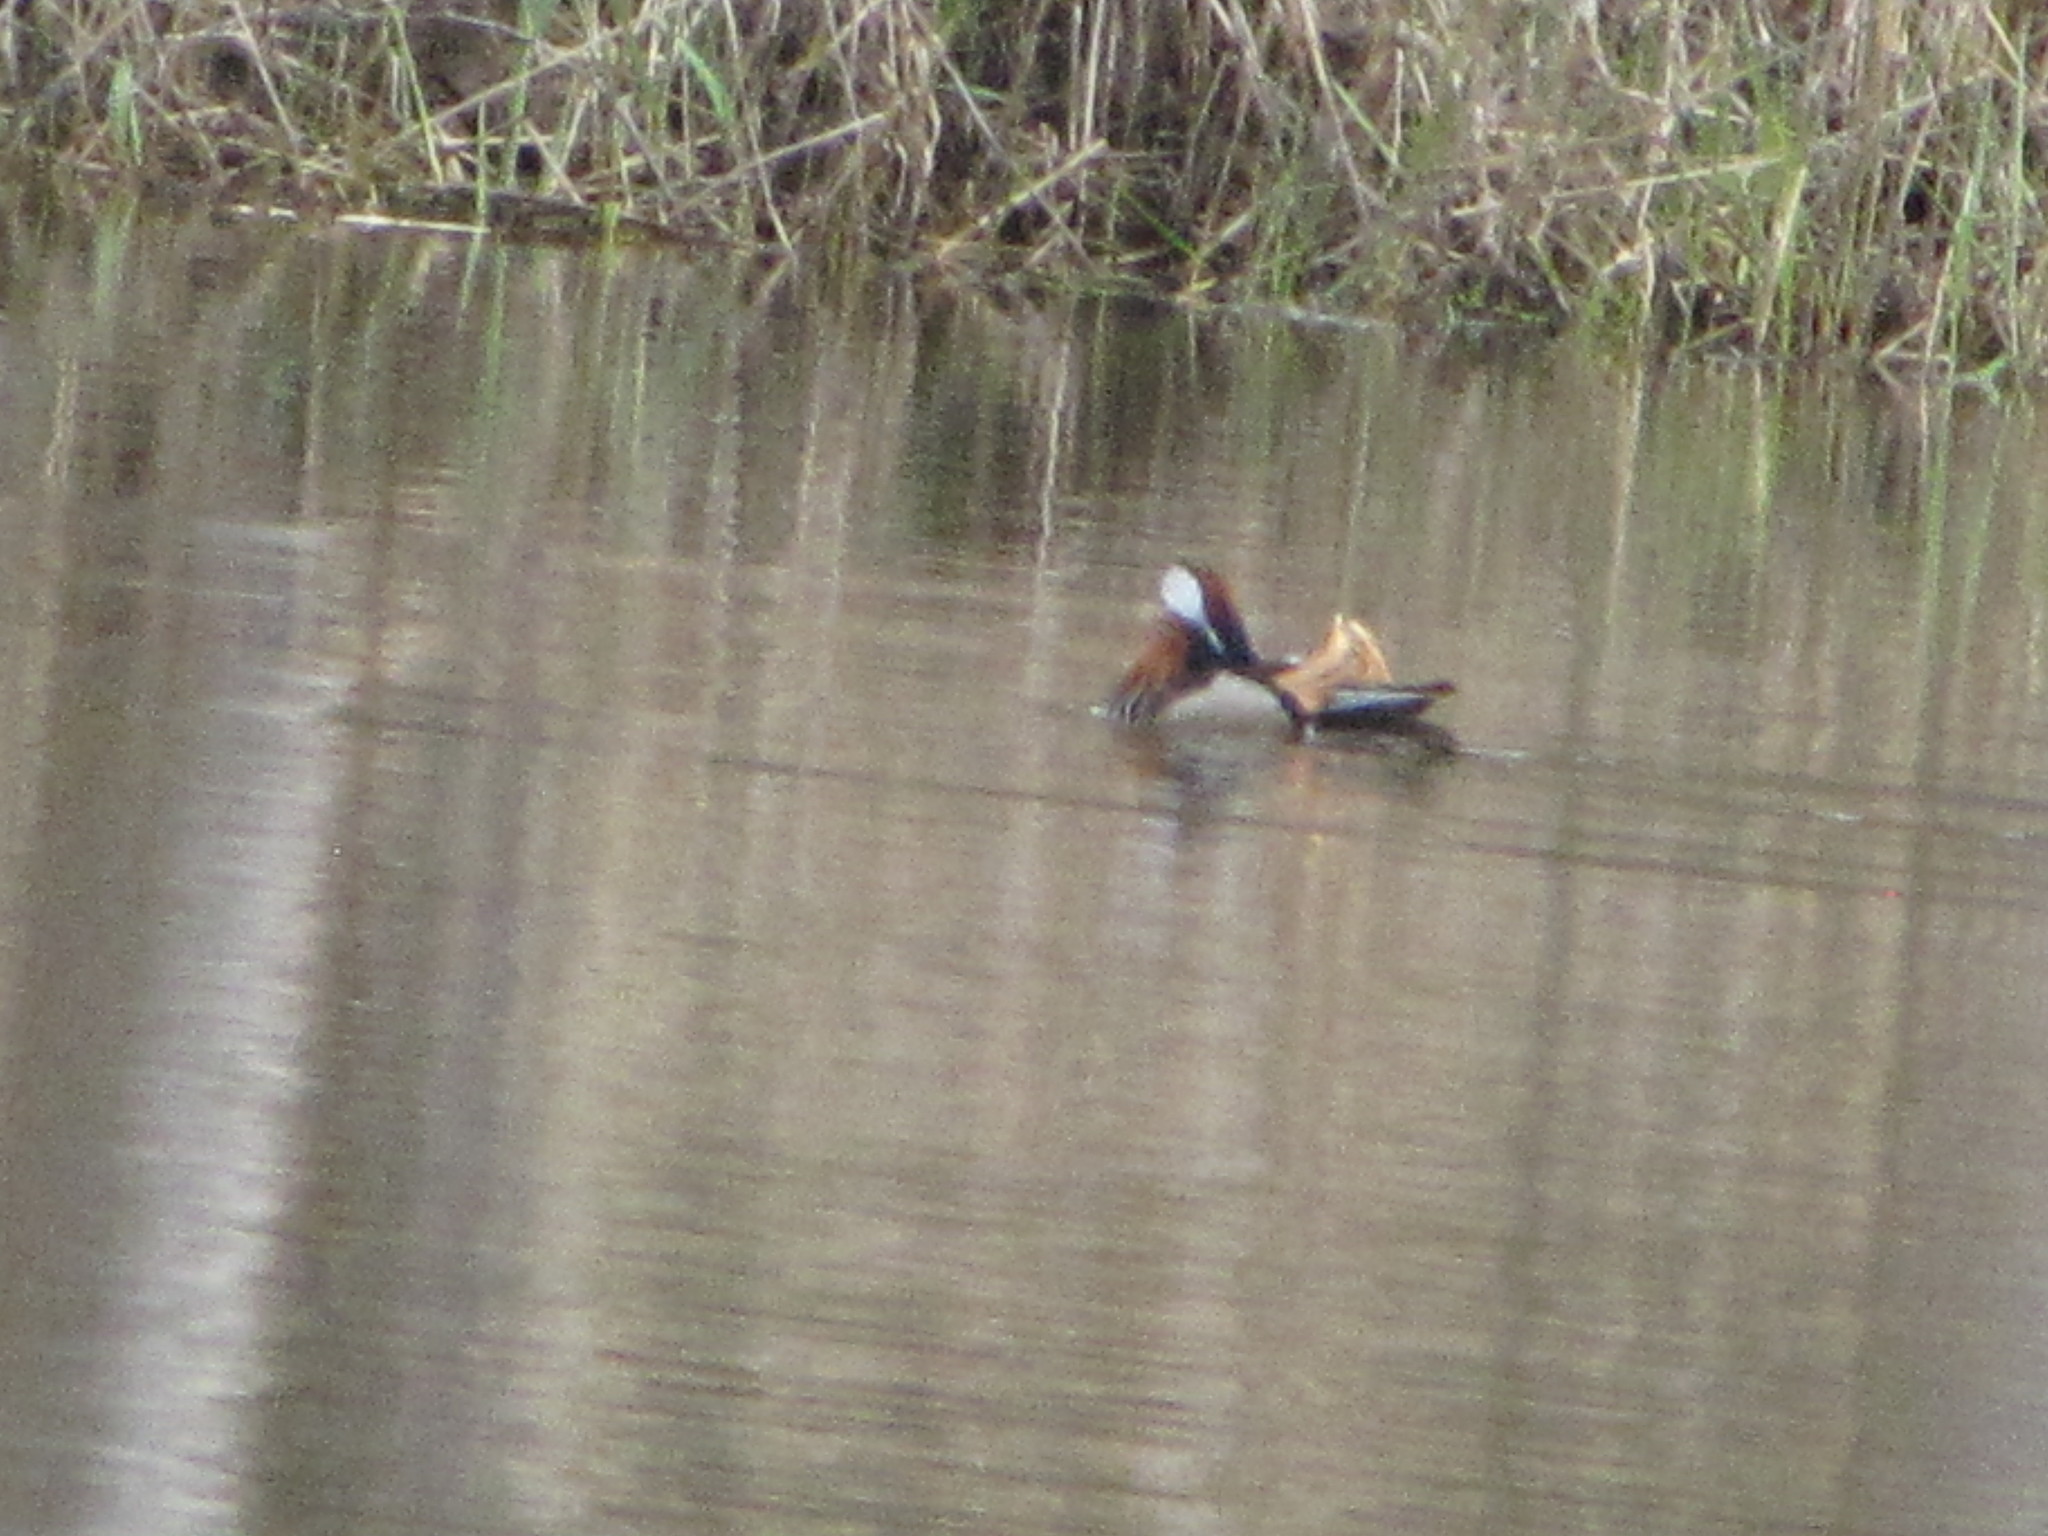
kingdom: Animalia
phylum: Chordata
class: Aves
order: Anseriformes
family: Anatidae
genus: Aix
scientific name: Aix galericulata
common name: Mandarin duck
